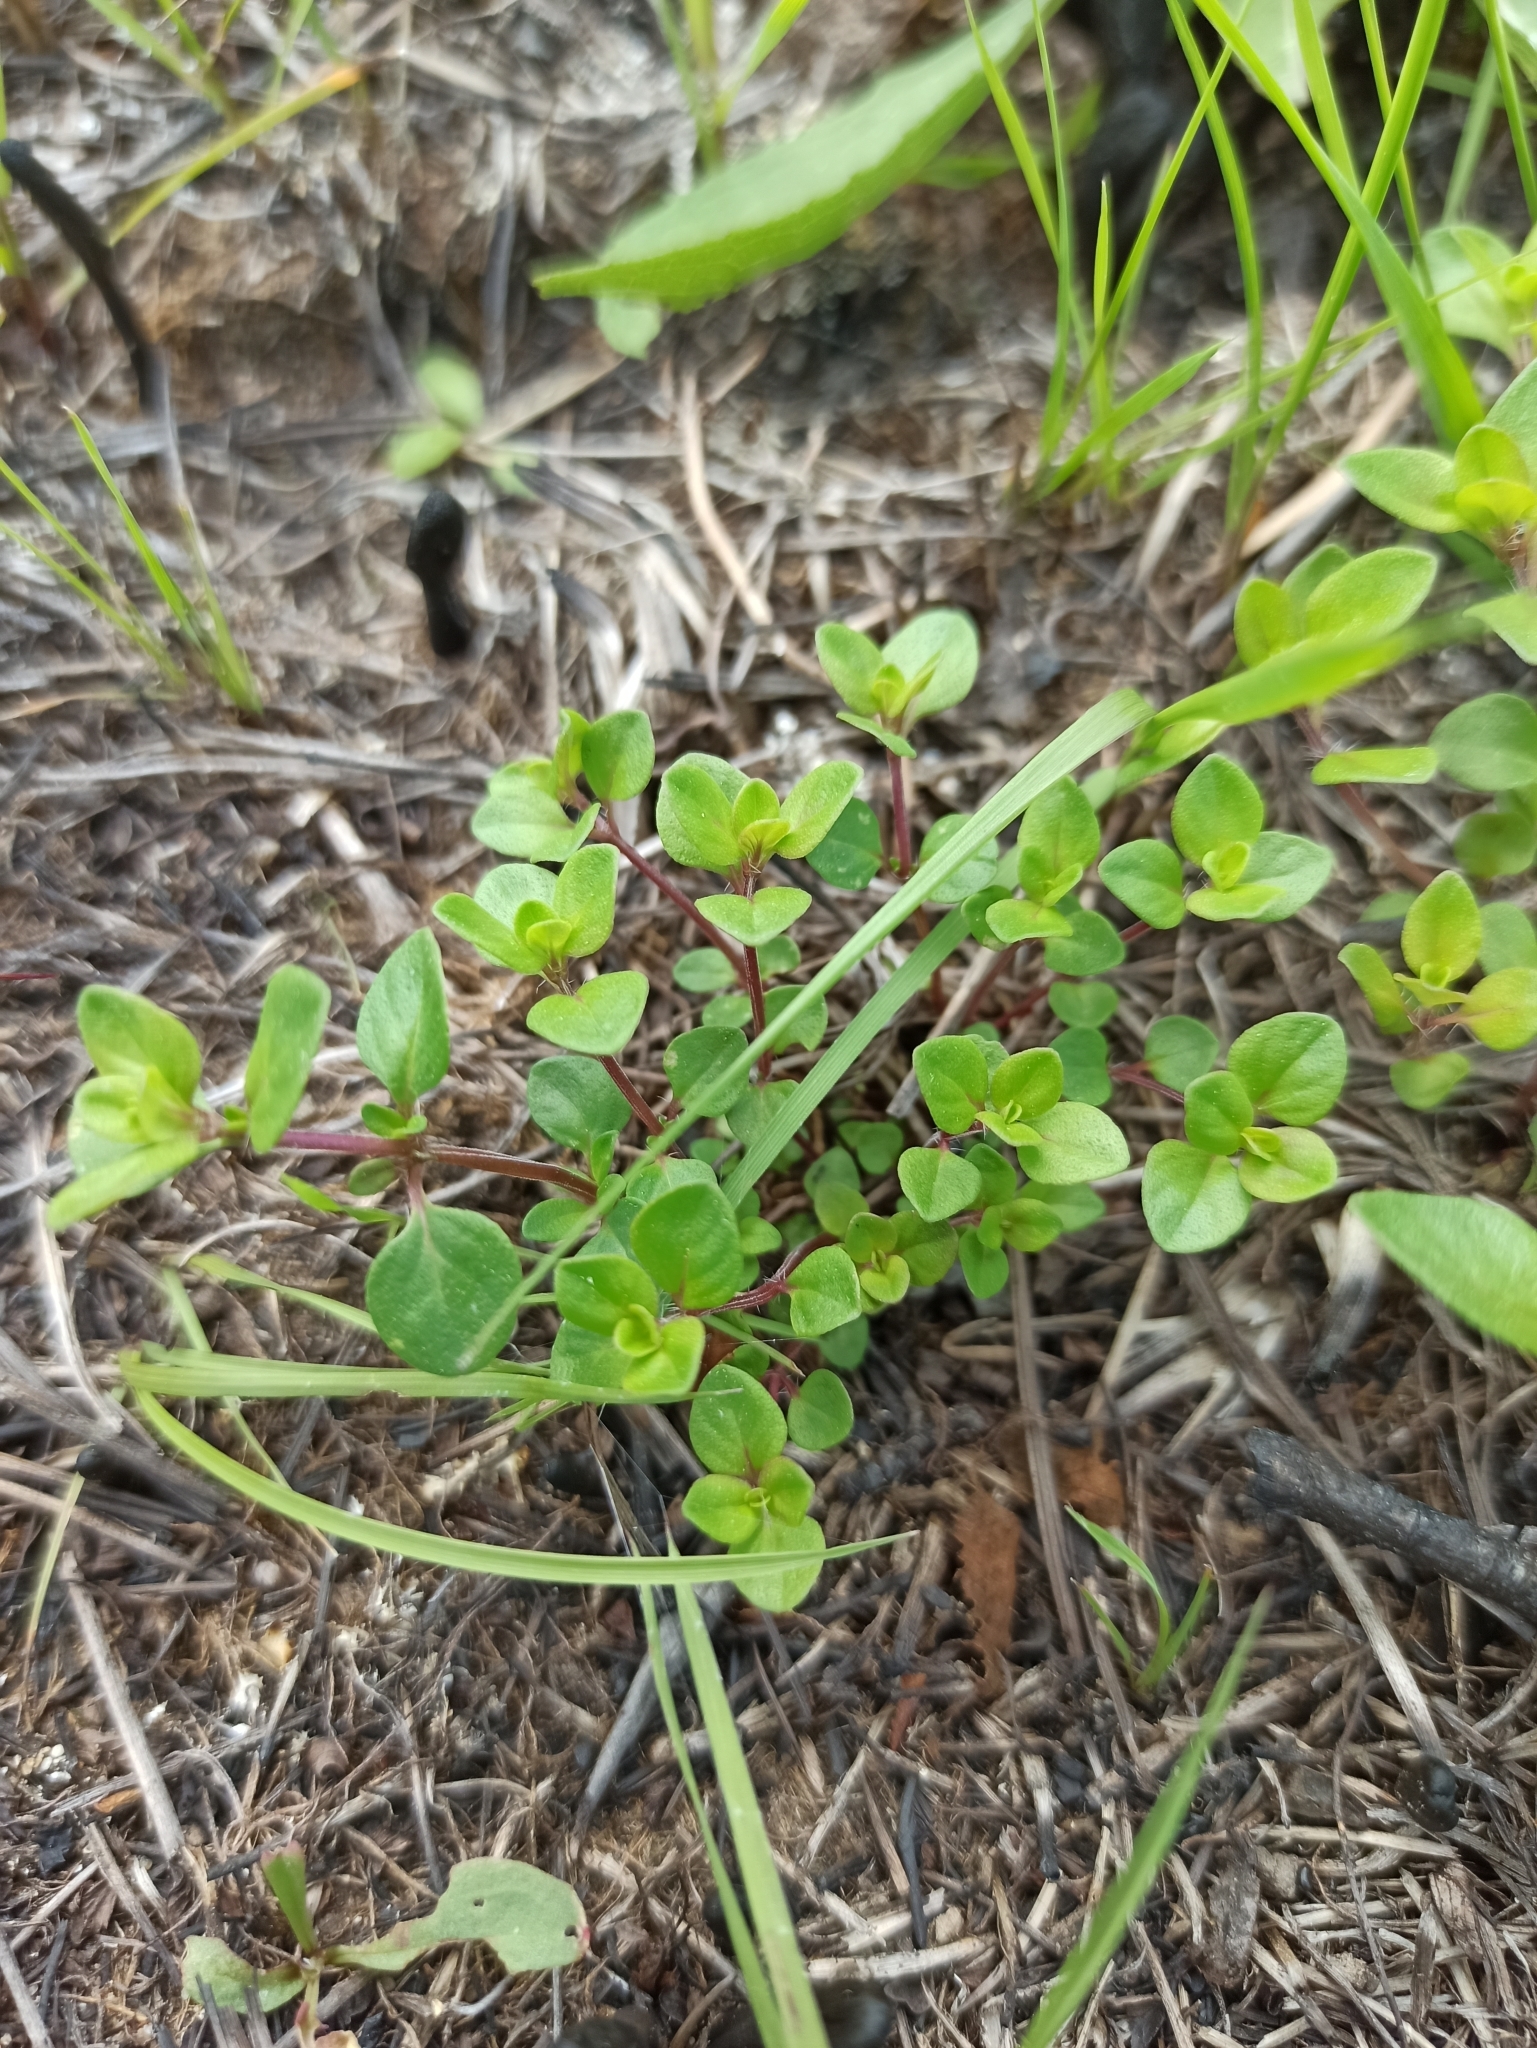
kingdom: Plantae
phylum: Tracheophyta
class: Magnoliopsida
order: Lamiales
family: Lamiaceae
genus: Thymus
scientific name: Thymus pulegioides
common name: Large thyme
